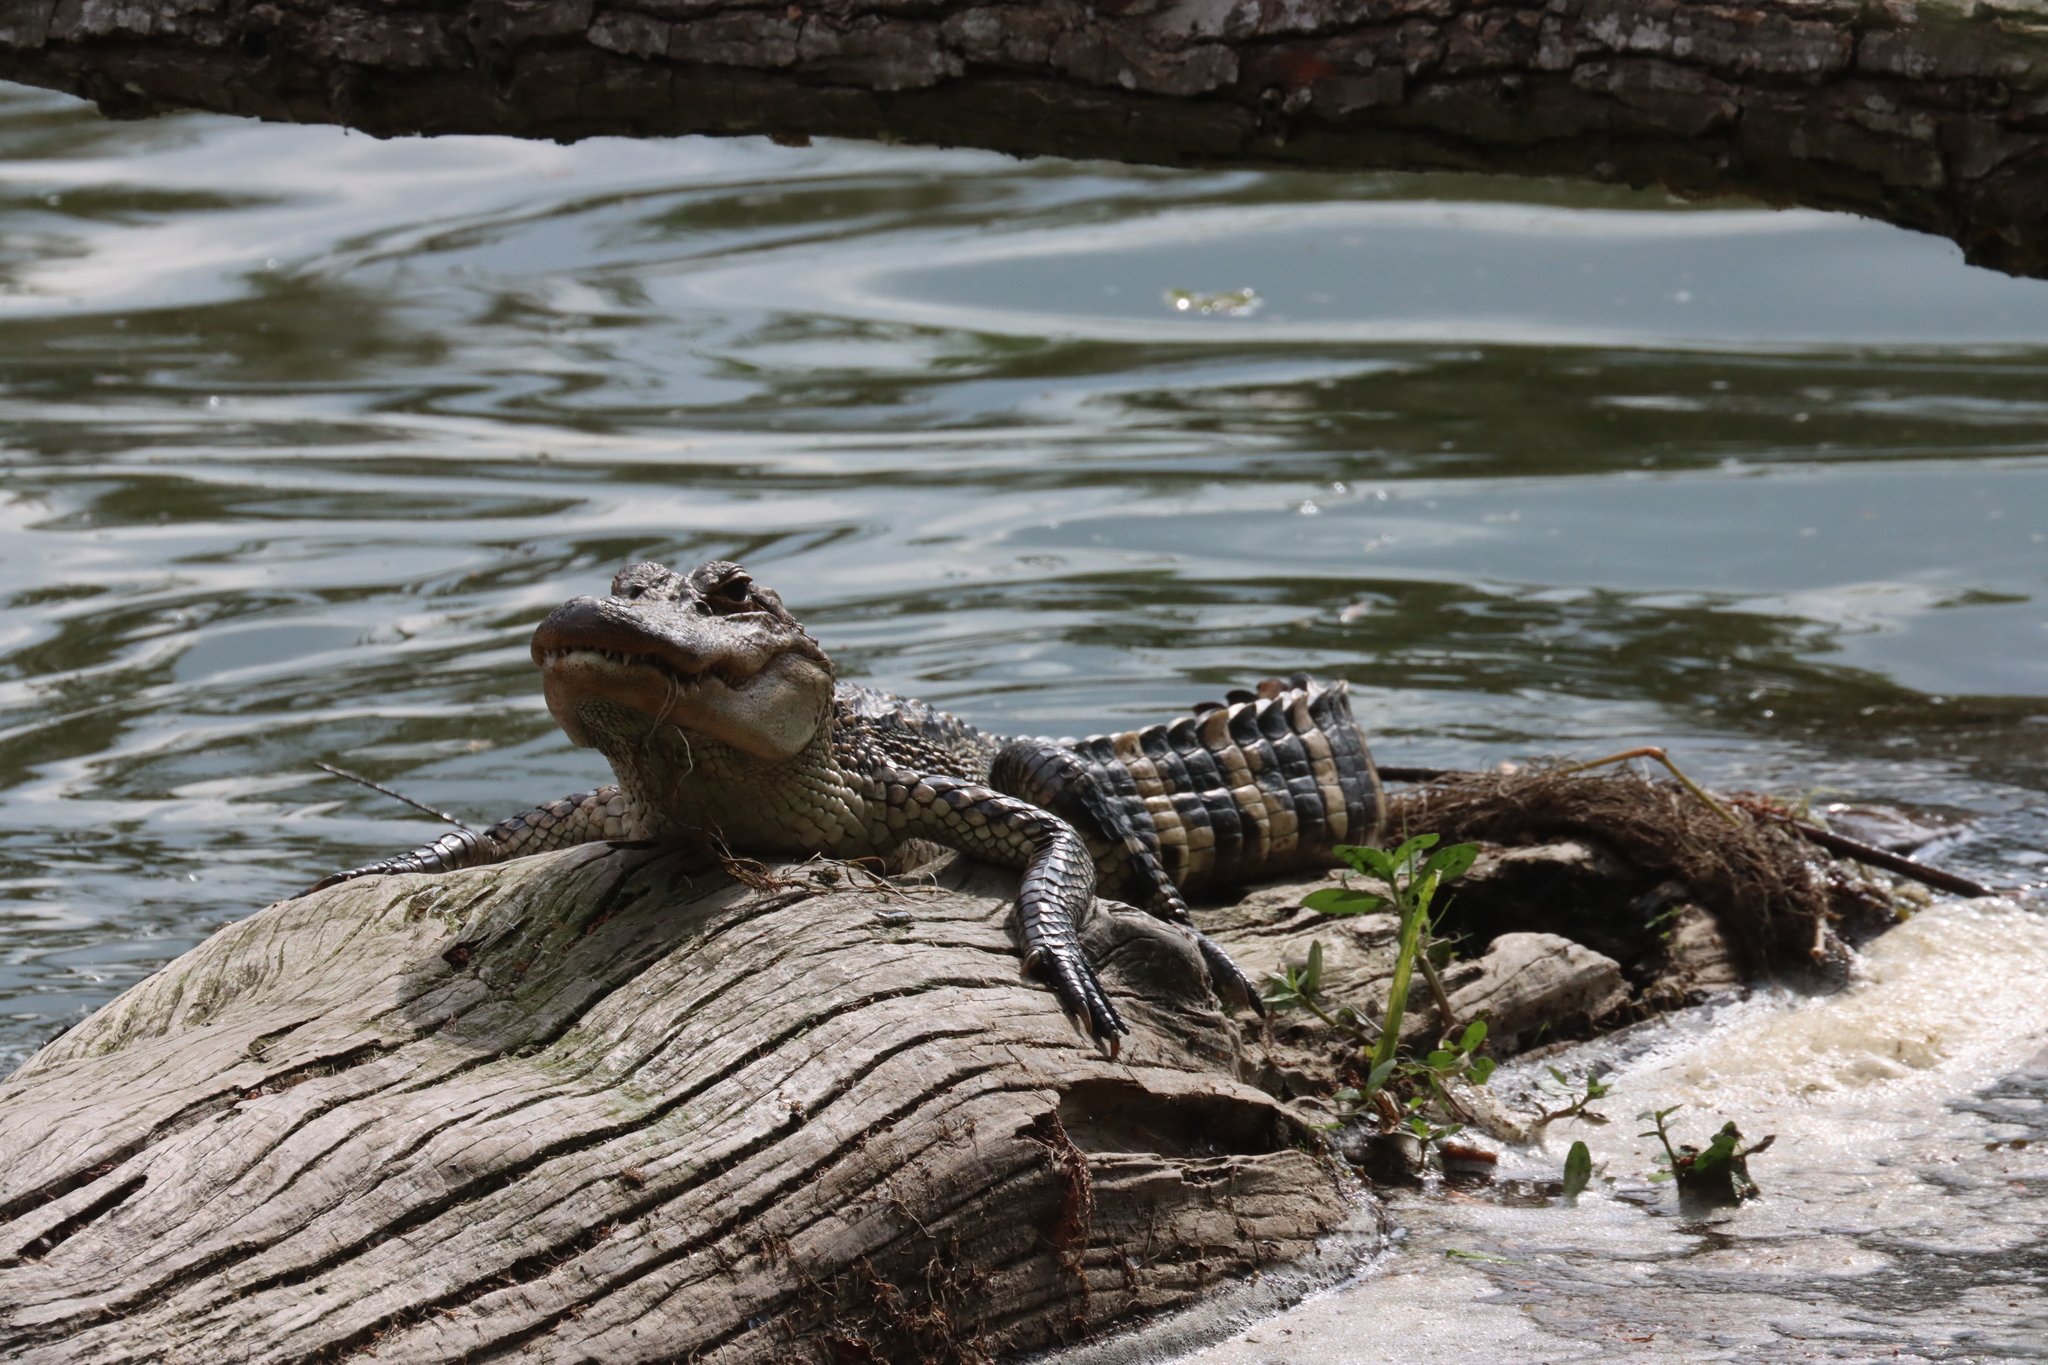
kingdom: Animalia
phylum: Chordata
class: Crocodylia
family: Alligatoridae
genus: Alligator
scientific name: Alligator mississippiensis
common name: American alligator
